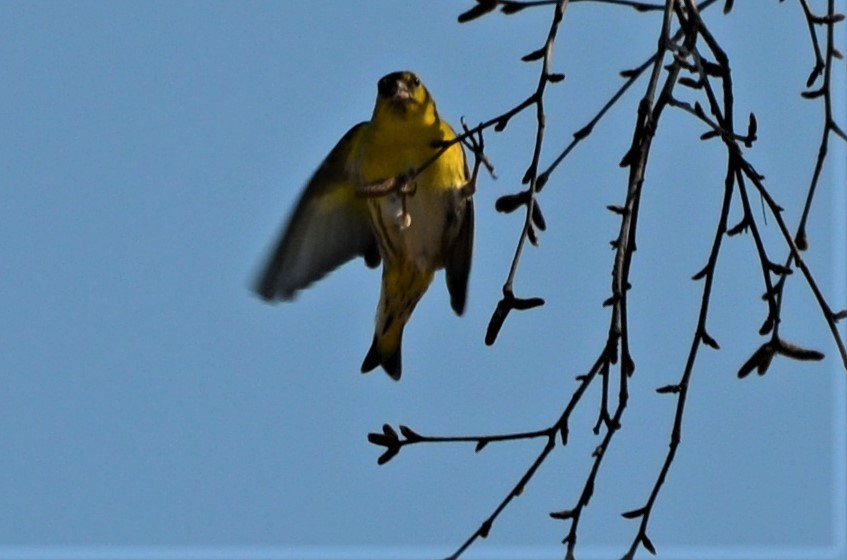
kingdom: Animalia
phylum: Chordata
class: Aves
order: Passeriformes
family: Fringillidae
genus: Spinus
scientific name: Spinus spinus
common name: Eurasian siskin
